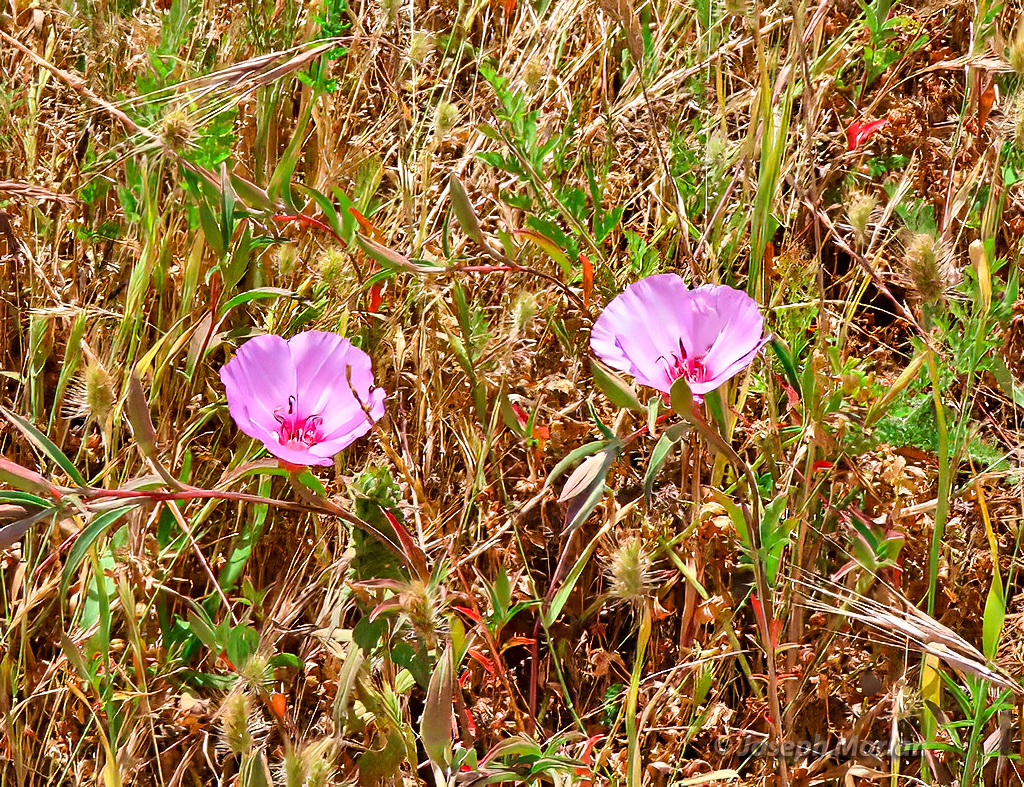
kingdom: Plantae
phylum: Tracheophyta
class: Magnoliopsida
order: Myrtales
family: Onagraceae
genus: Clarkia
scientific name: Clarkia rubicunda
